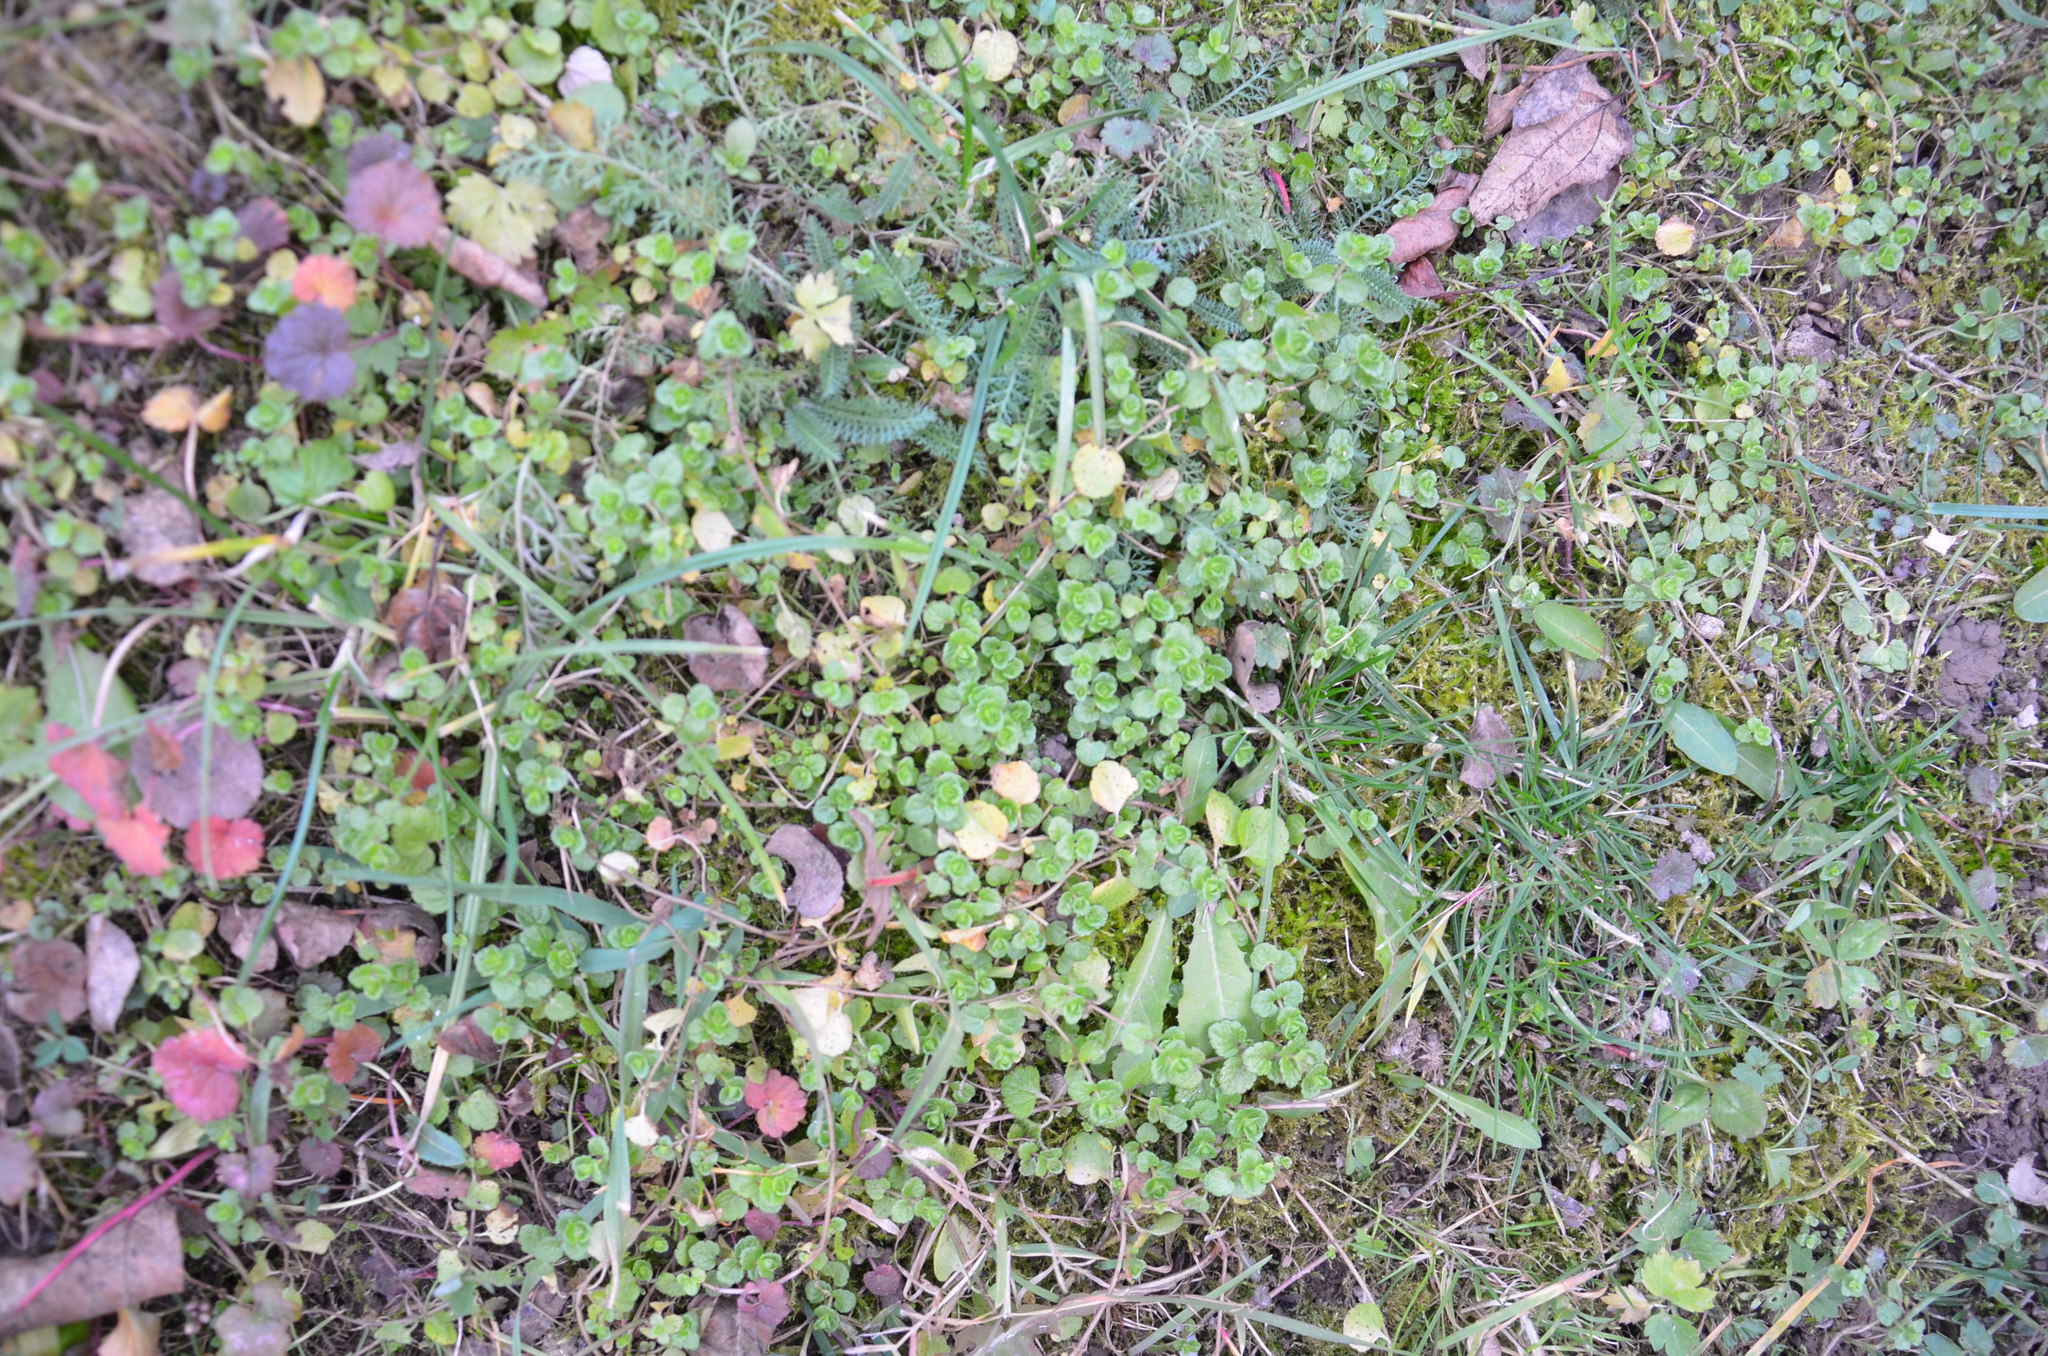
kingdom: Plantae
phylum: Tracheophyta
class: Magnoliopsida
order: Lamiales
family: Plantaginaceae
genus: Veronica
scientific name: Veronica filiformis
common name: Slender speedwell
